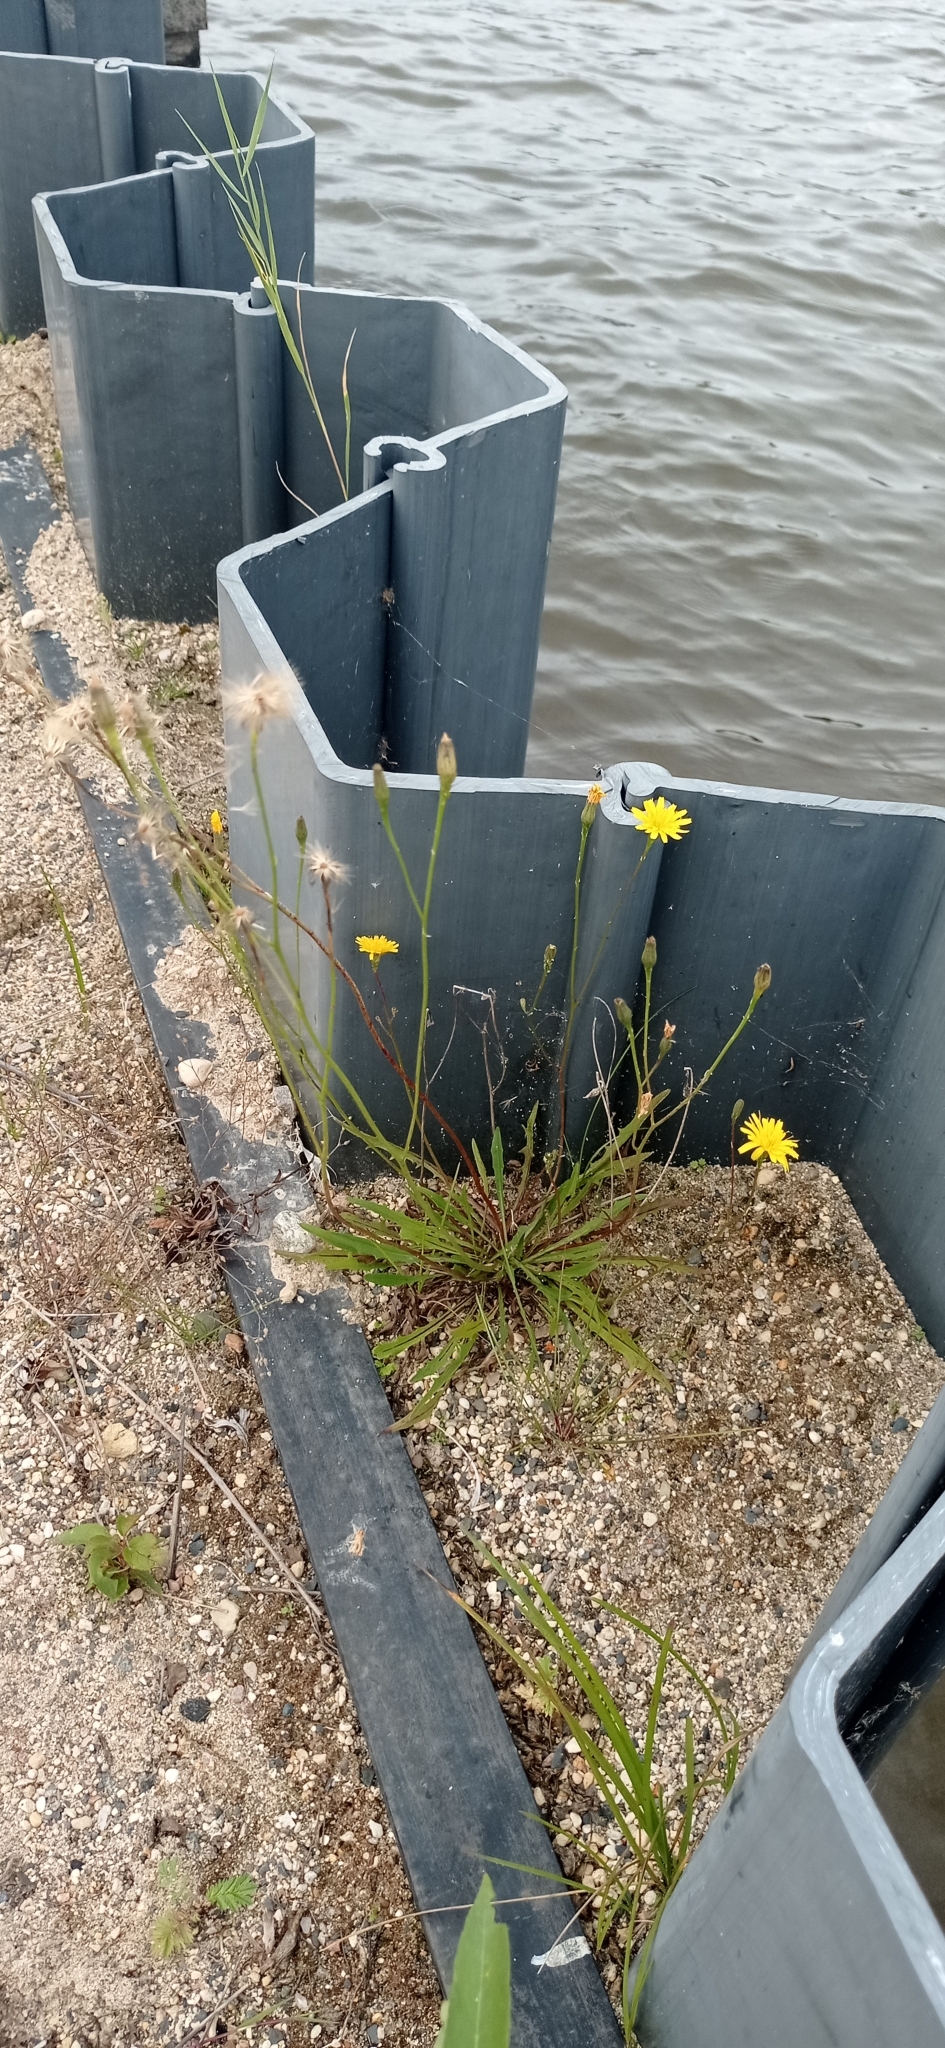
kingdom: Plantae
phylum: Tracheophyta
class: Magnoliopsida
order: Asterales
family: Asteraceae
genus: Scorzoneroides
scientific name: Scorzoneroides autumnalis
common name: Autumn hawkbit
